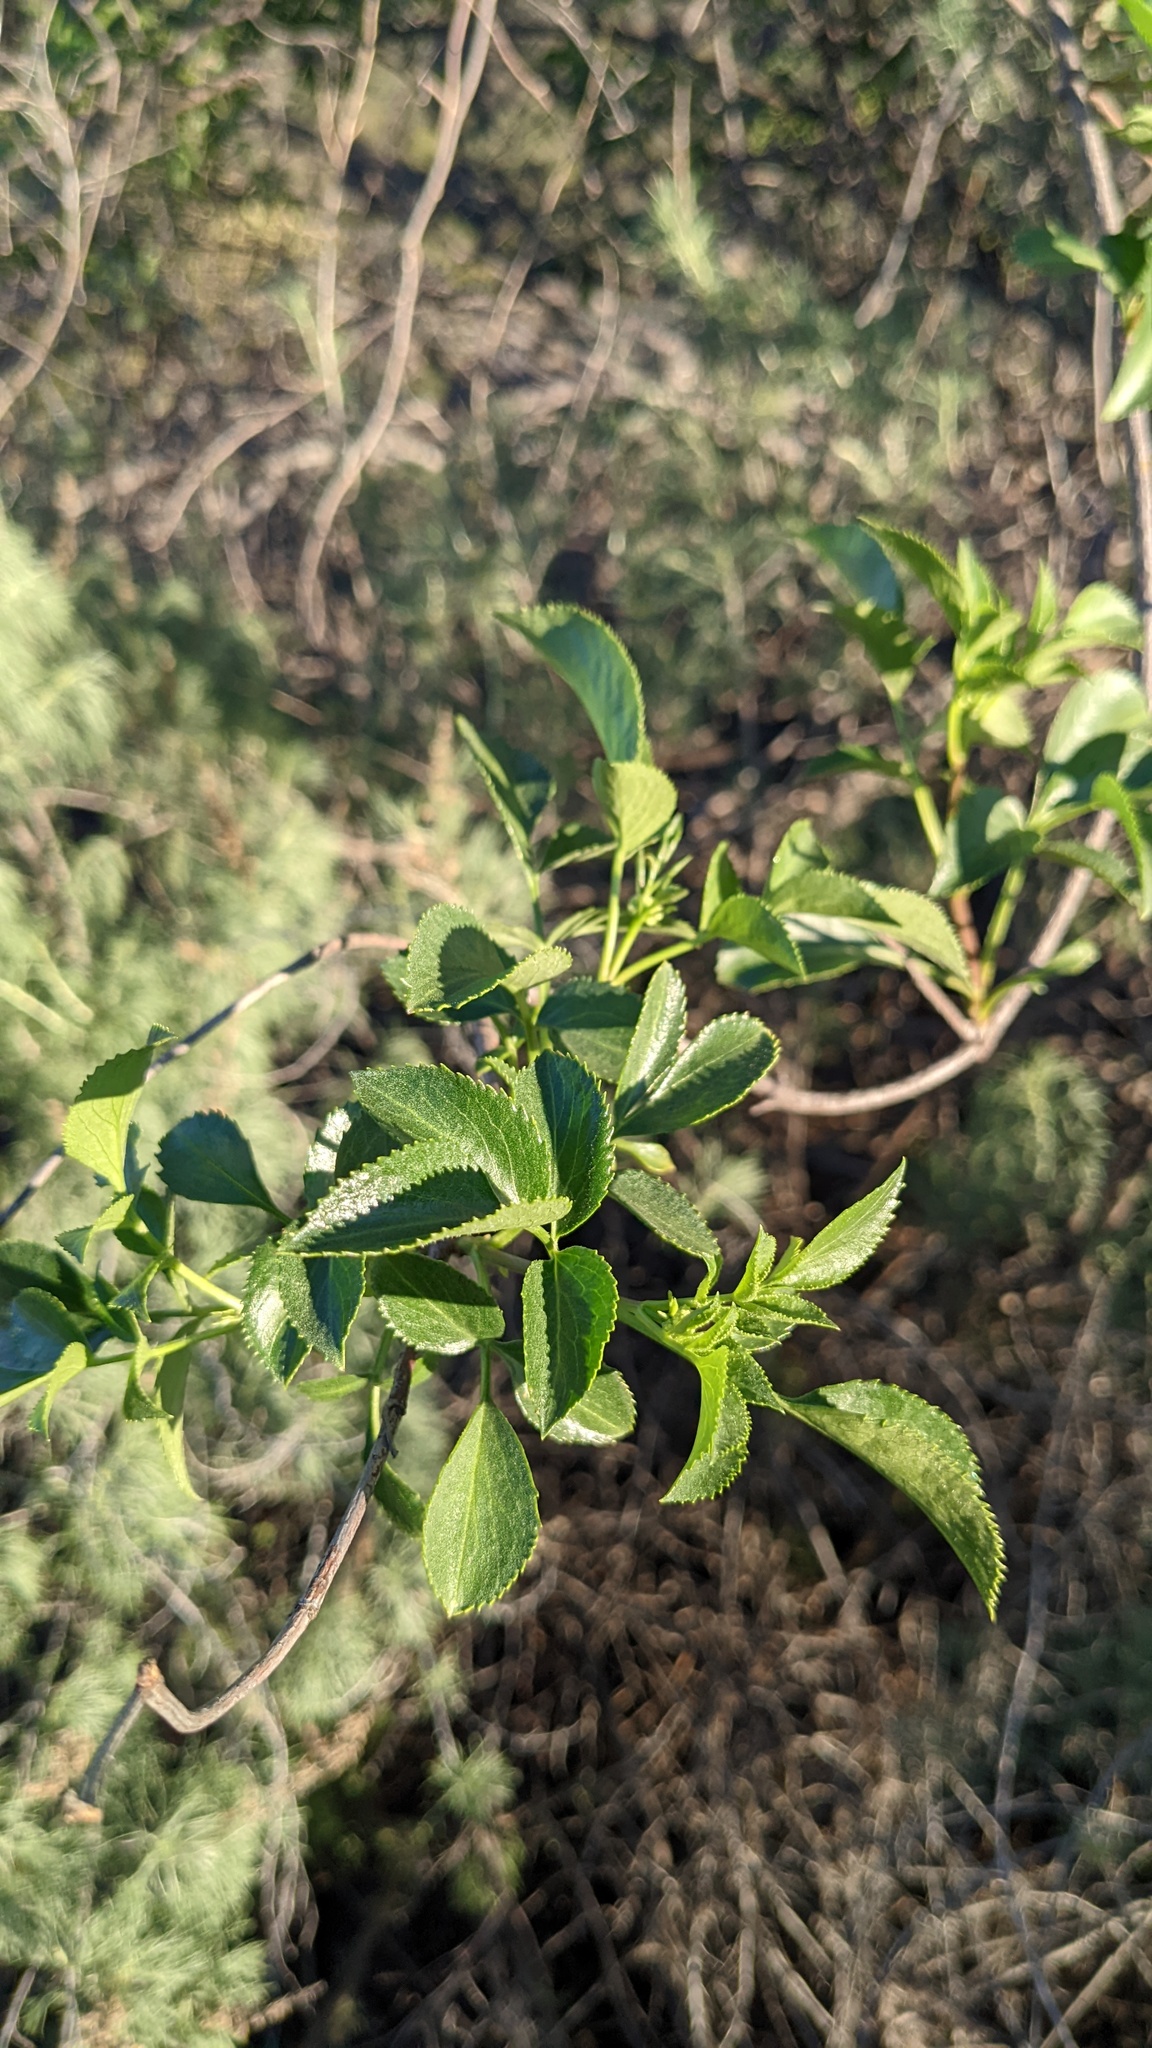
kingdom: Plantae
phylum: Tracheophyta
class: Magnoliopsida
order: Dipsacales
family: Viburnaceae
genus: Sambucus
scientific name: Sambucus cerulea
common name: Blue elder
